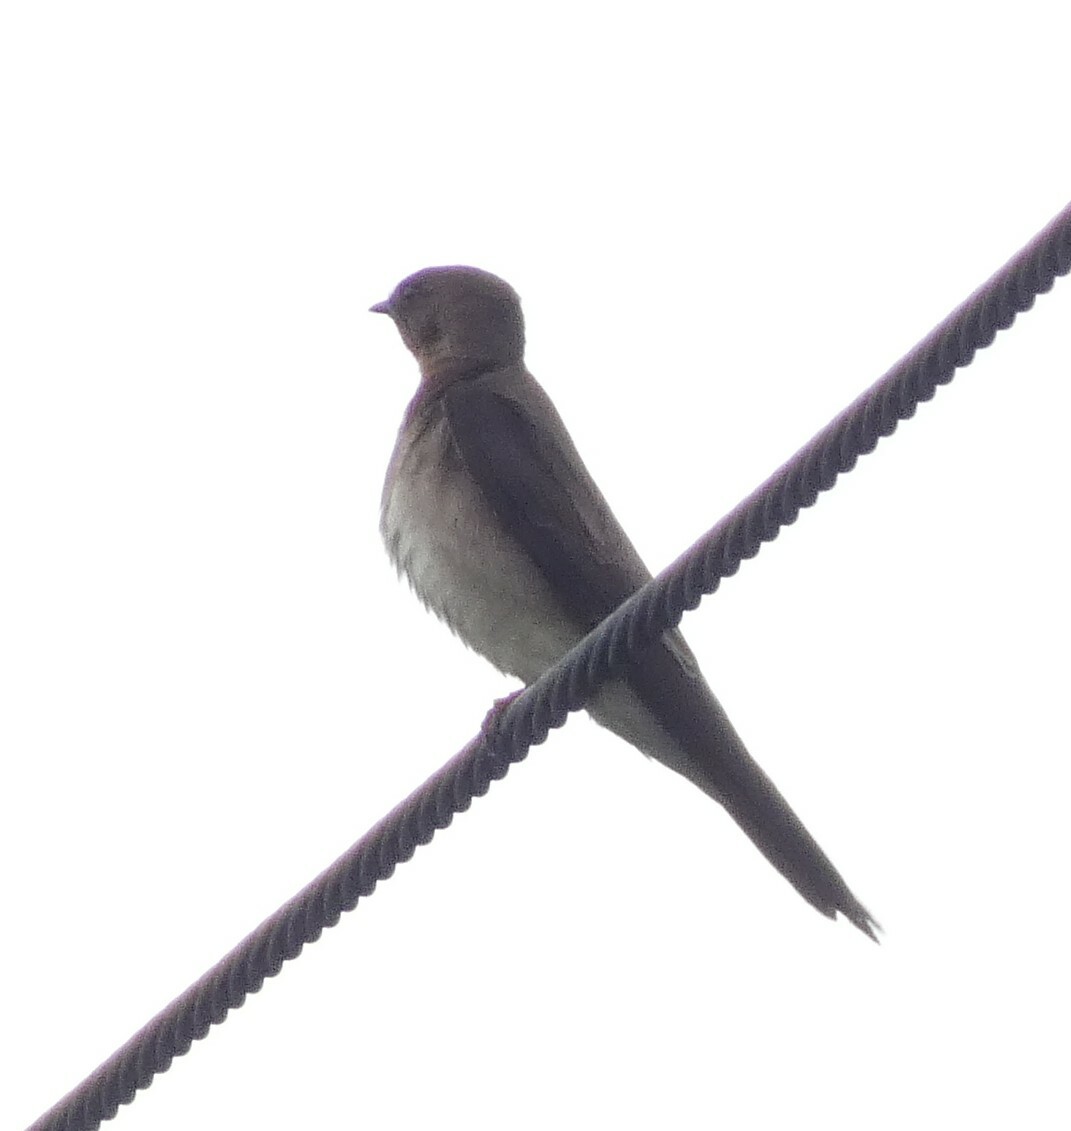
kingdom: Animalia
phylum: Chordata
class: Aves
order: Passeriformes
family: Hirundinidae
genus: Stelgidopteryx
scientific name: Stelgidopteryx ruficollis
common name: Southern rough-winged swallow
